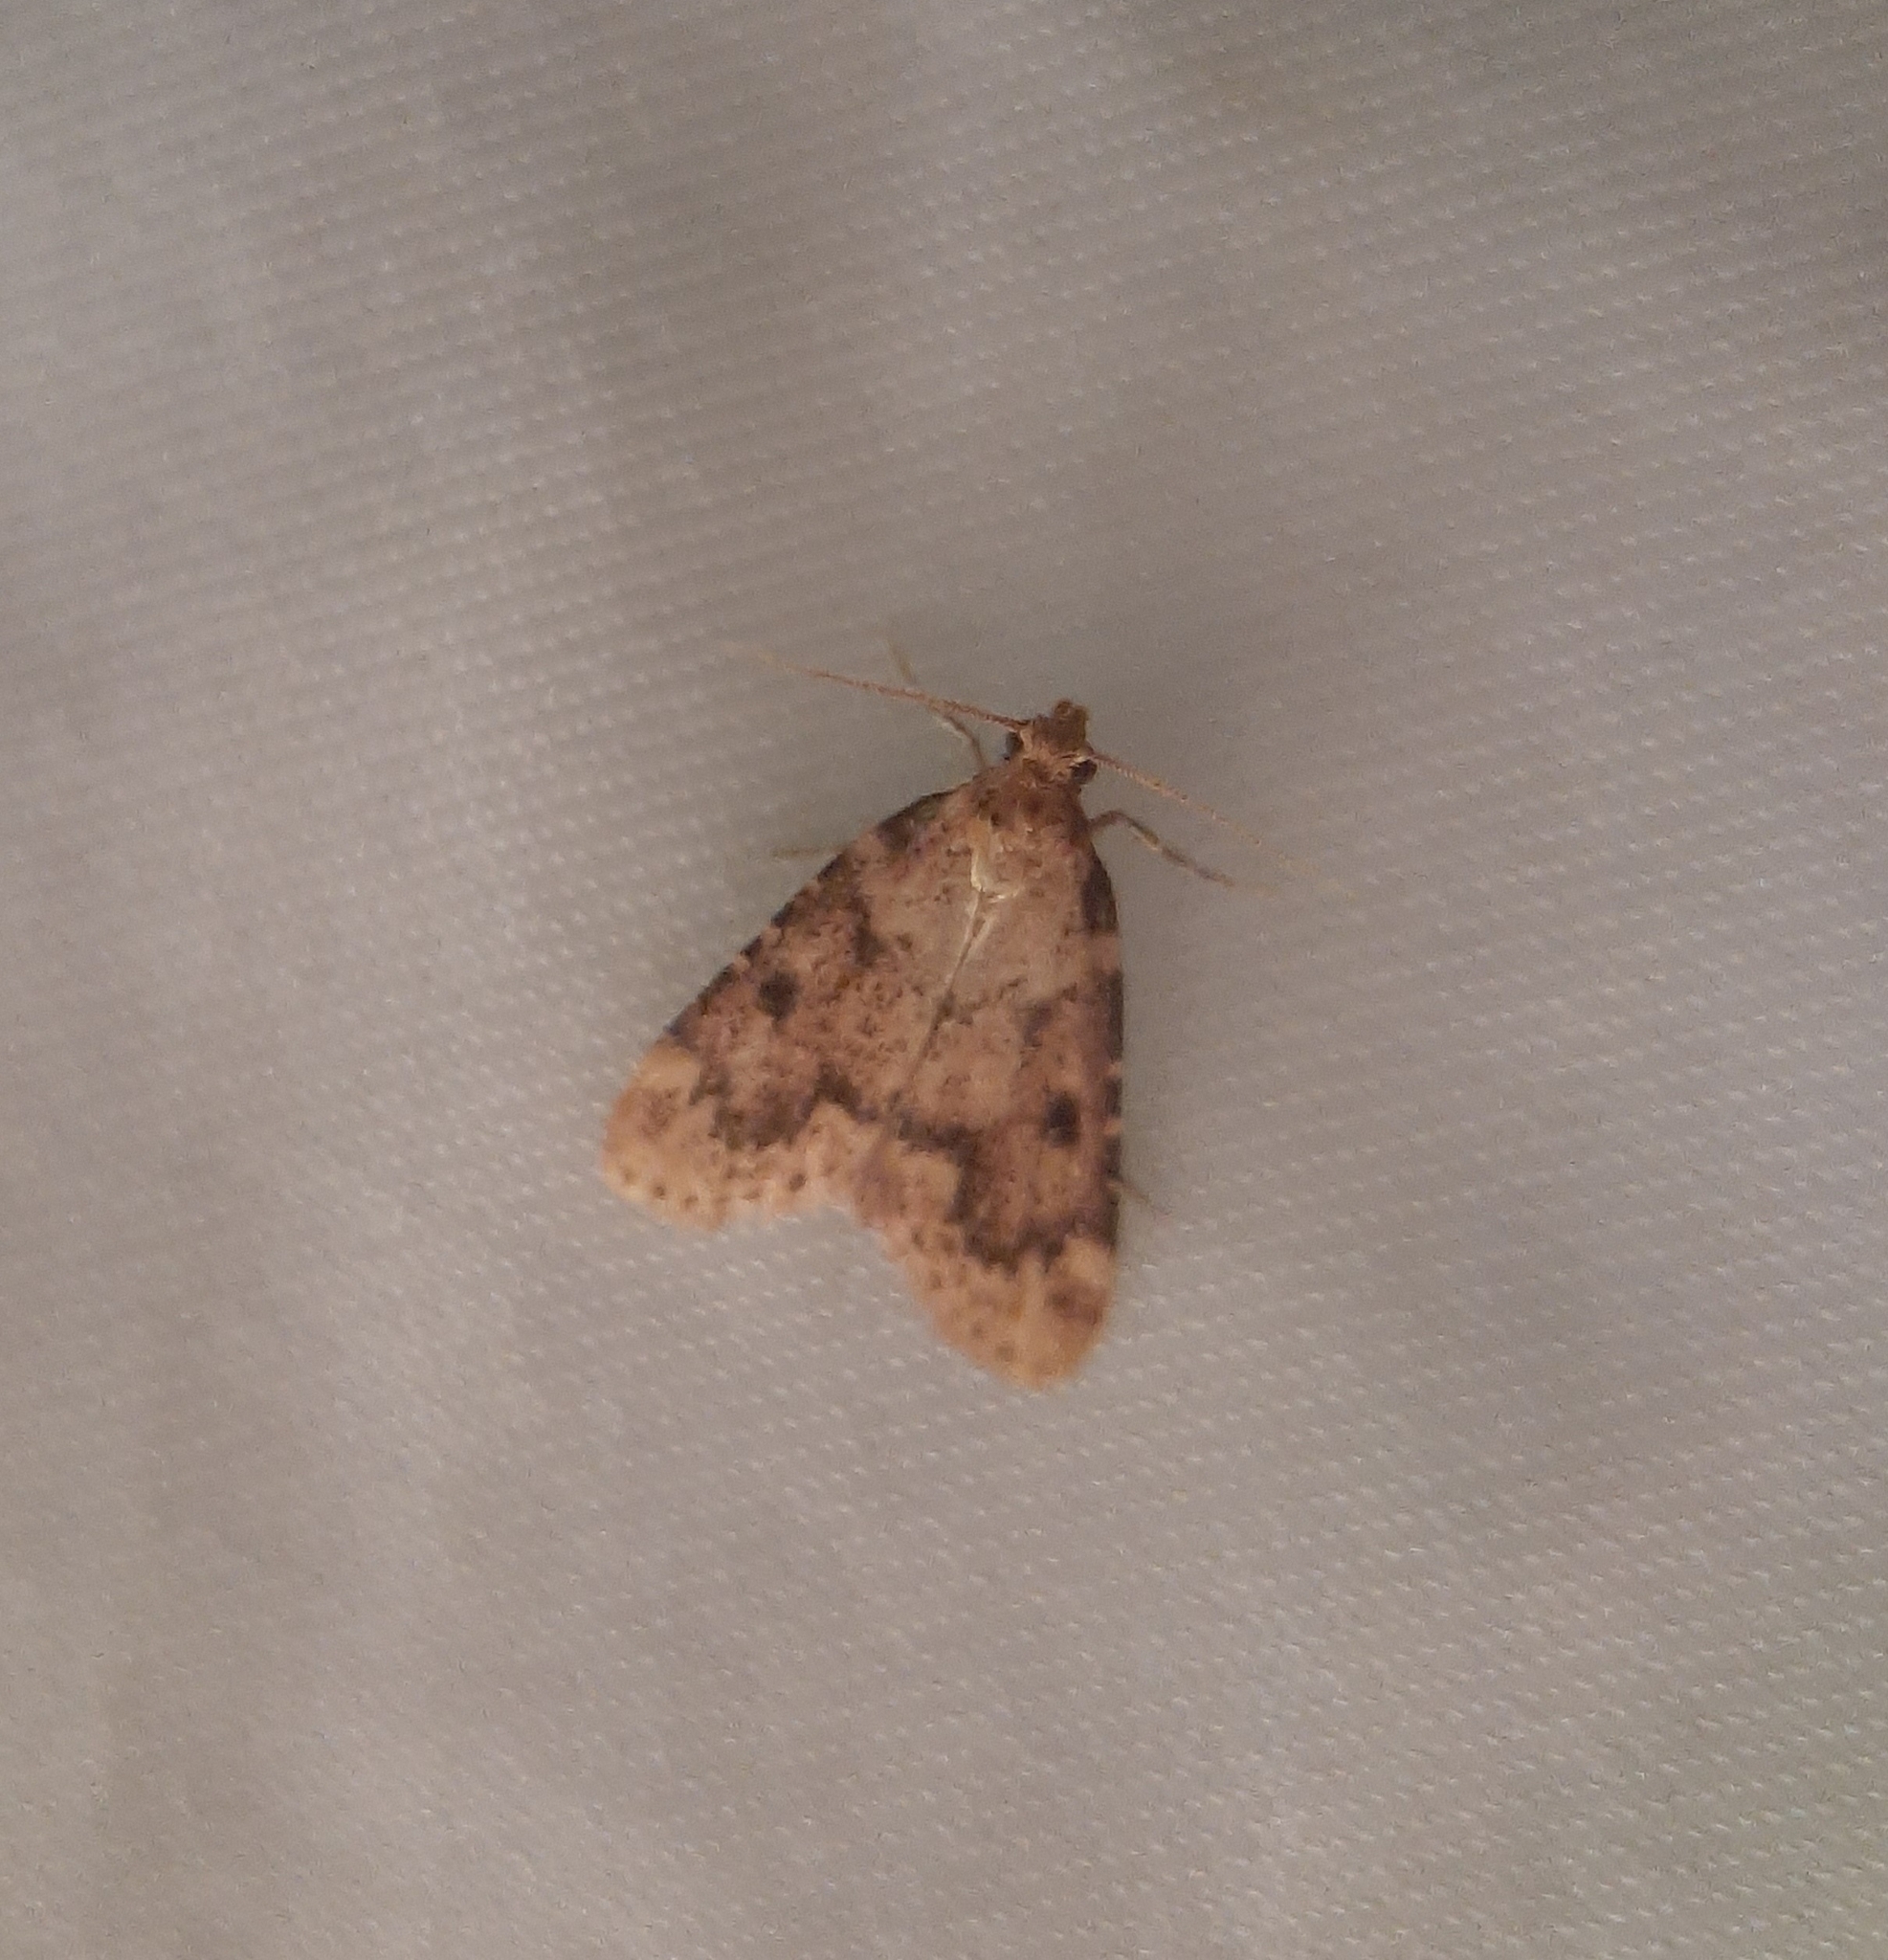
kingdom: Animalia
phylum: Arthropoda
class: Insecta
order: Lepidoptera
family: Pyralidae
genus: Aglossa
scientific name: Aglossa disciferalis
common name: Pink-masked pyralid moth
